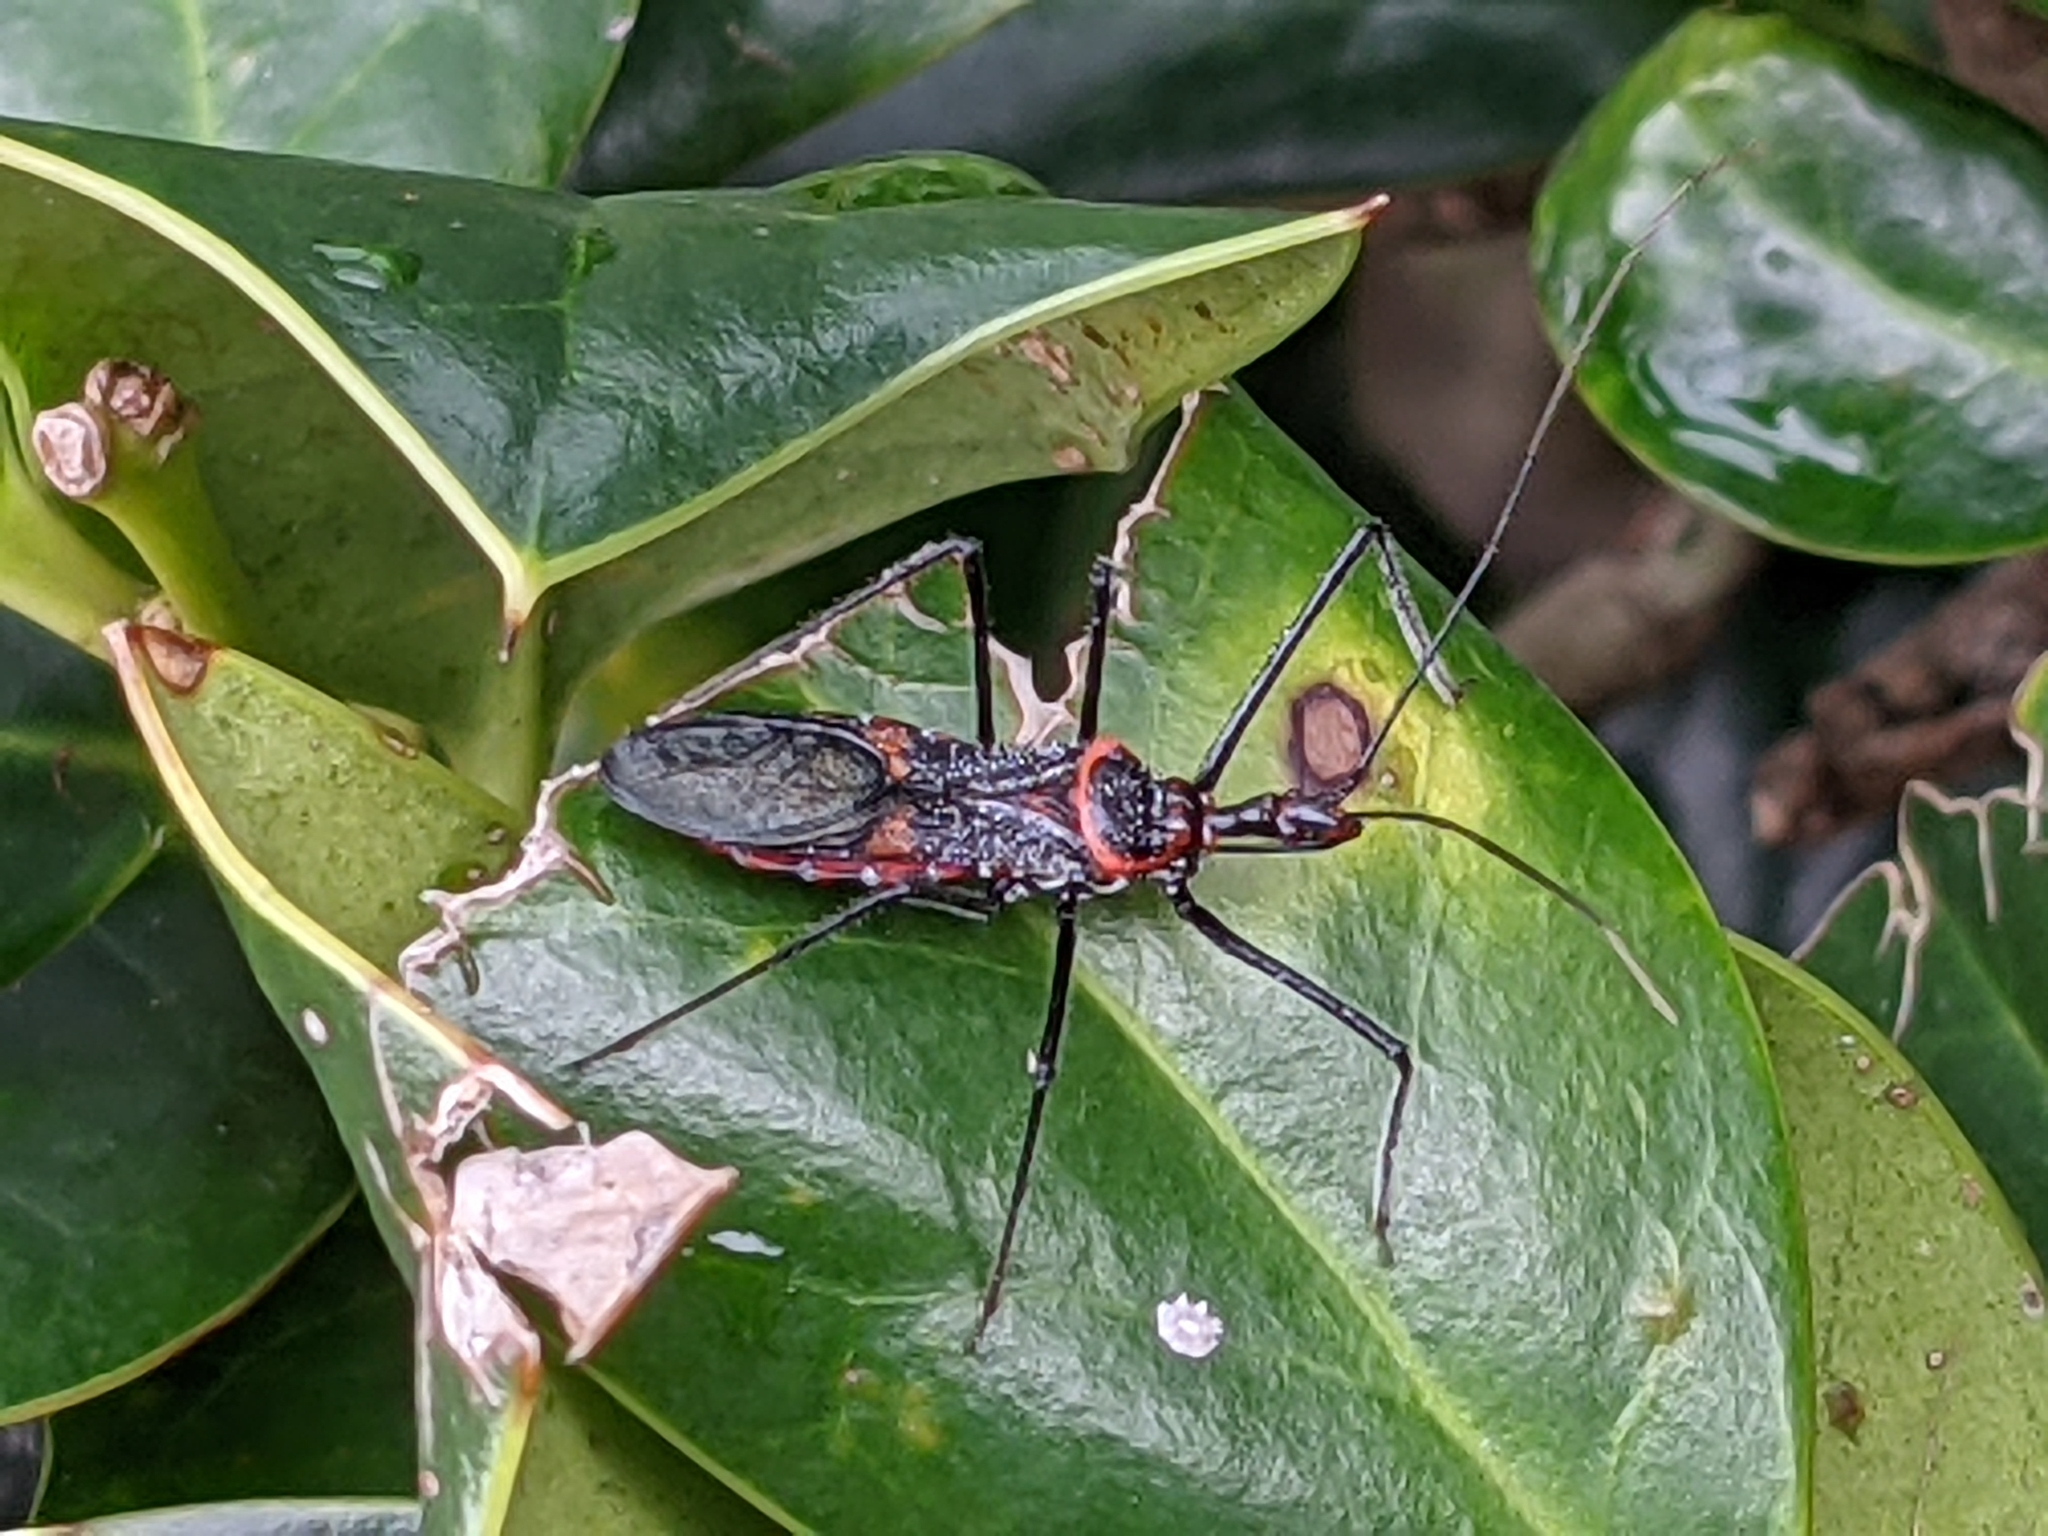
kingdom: Animalia
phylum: Arthropoda
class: Insecta
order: Hemiptera
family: Reduviidae
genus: Zelus
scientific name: Zelus longipes
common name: Milkweed assassin bug
